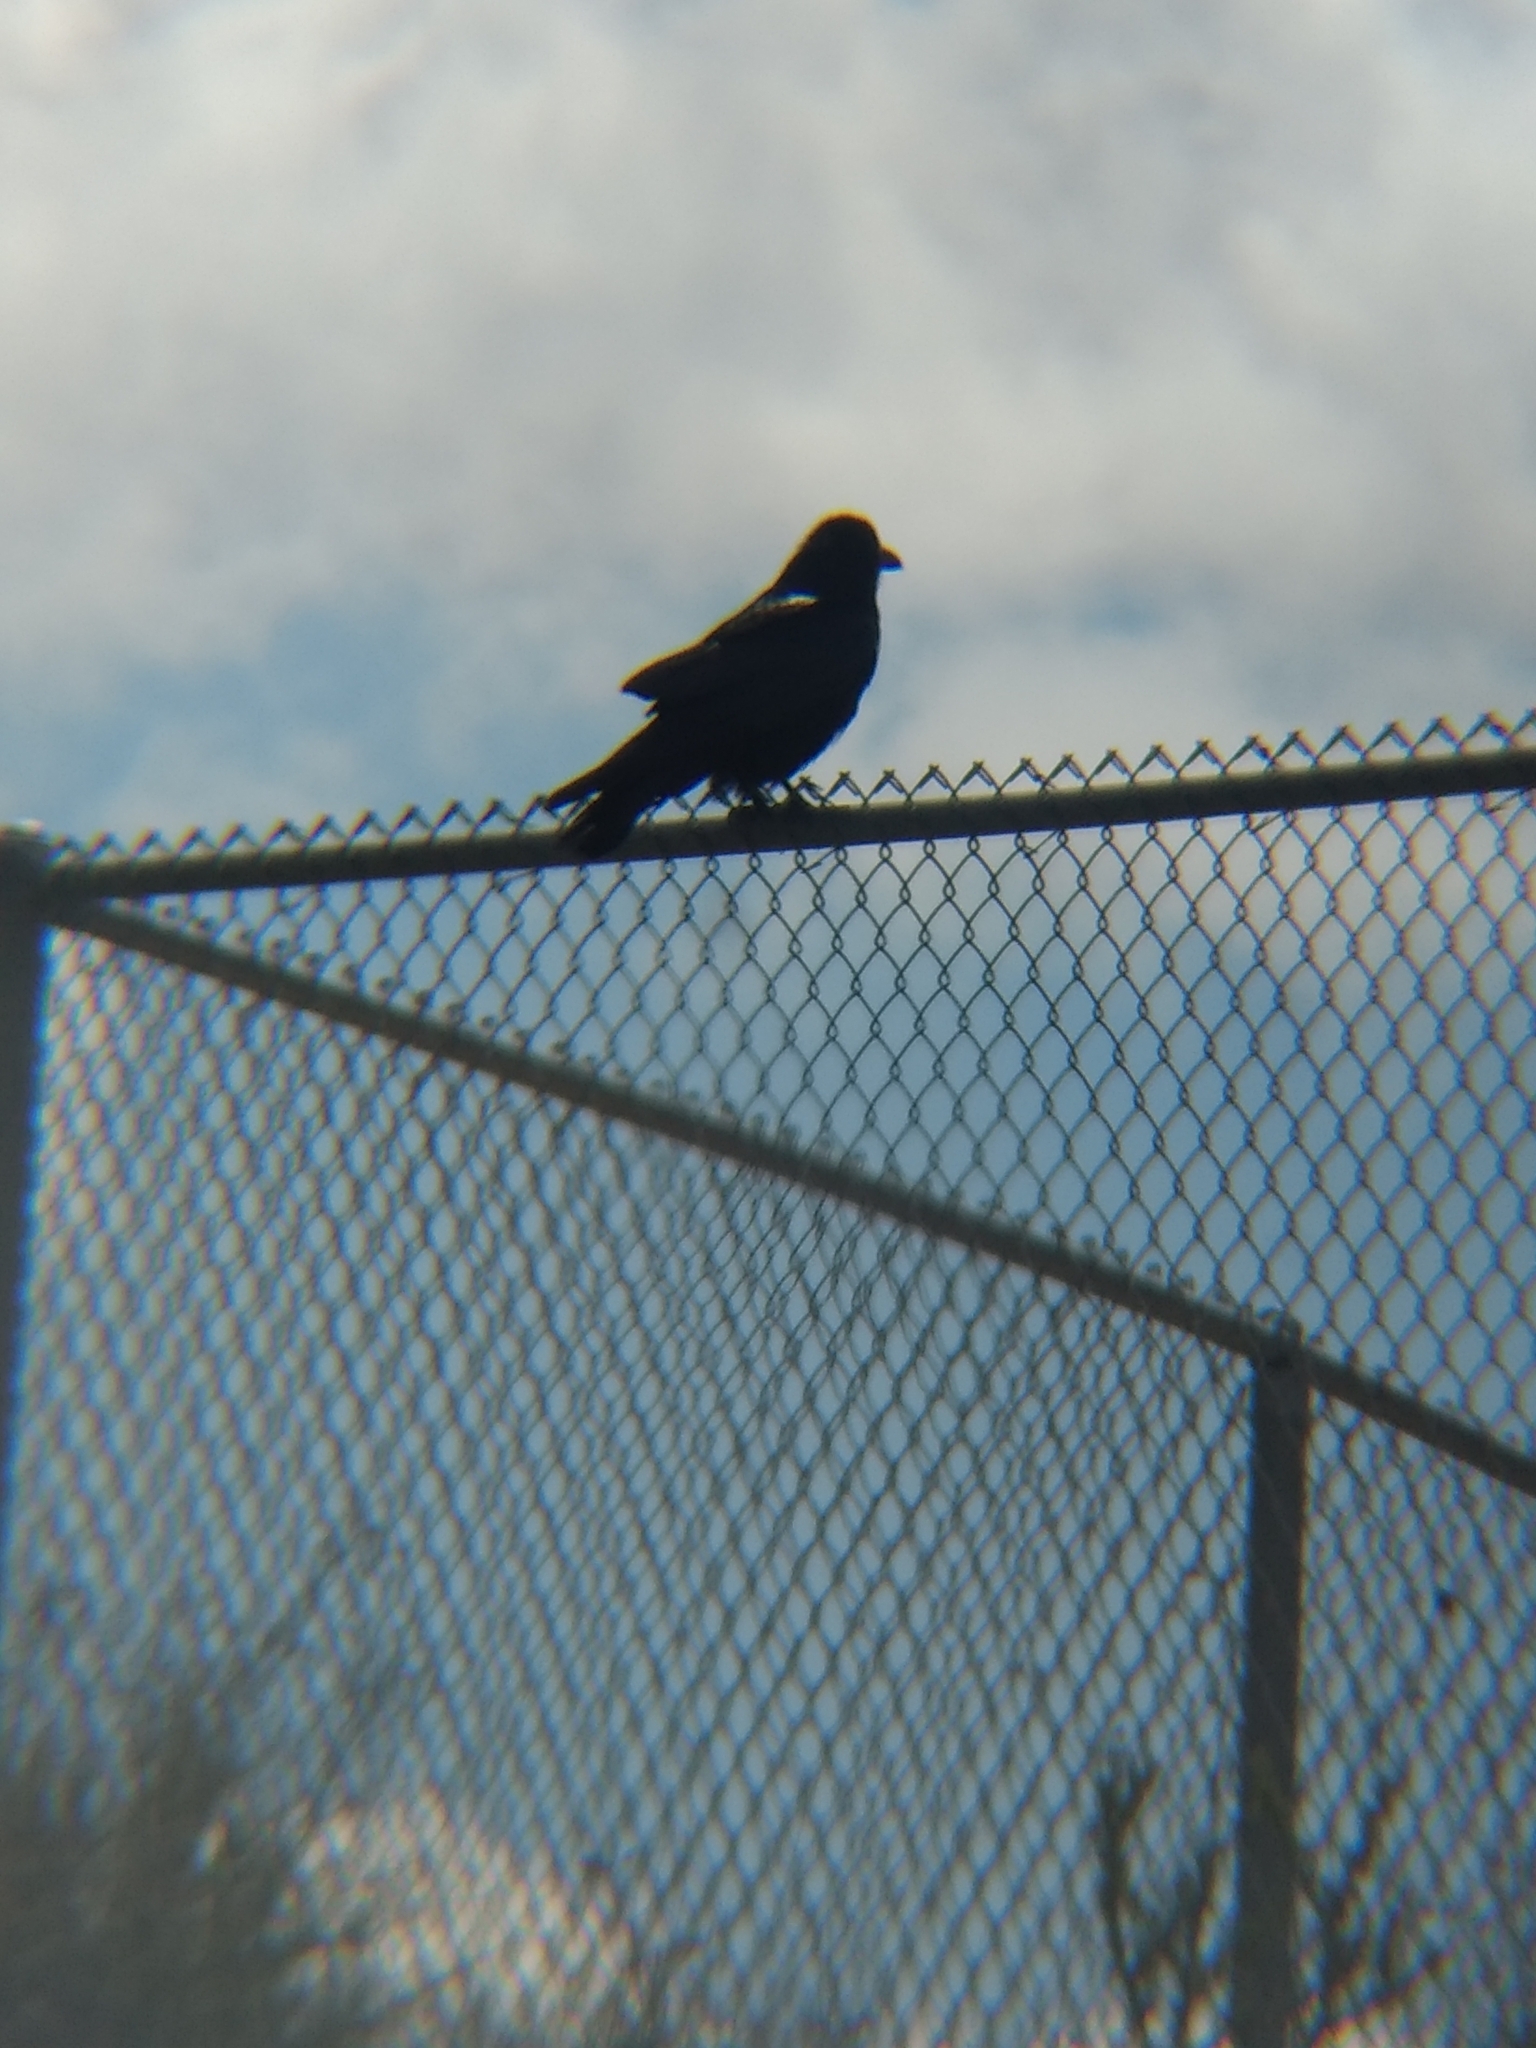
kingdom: Animalia
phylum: Chordata
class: Aves
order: Passeriformes
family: Corvidae
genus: Corvus
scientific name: Corvus corax
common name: Common raven
